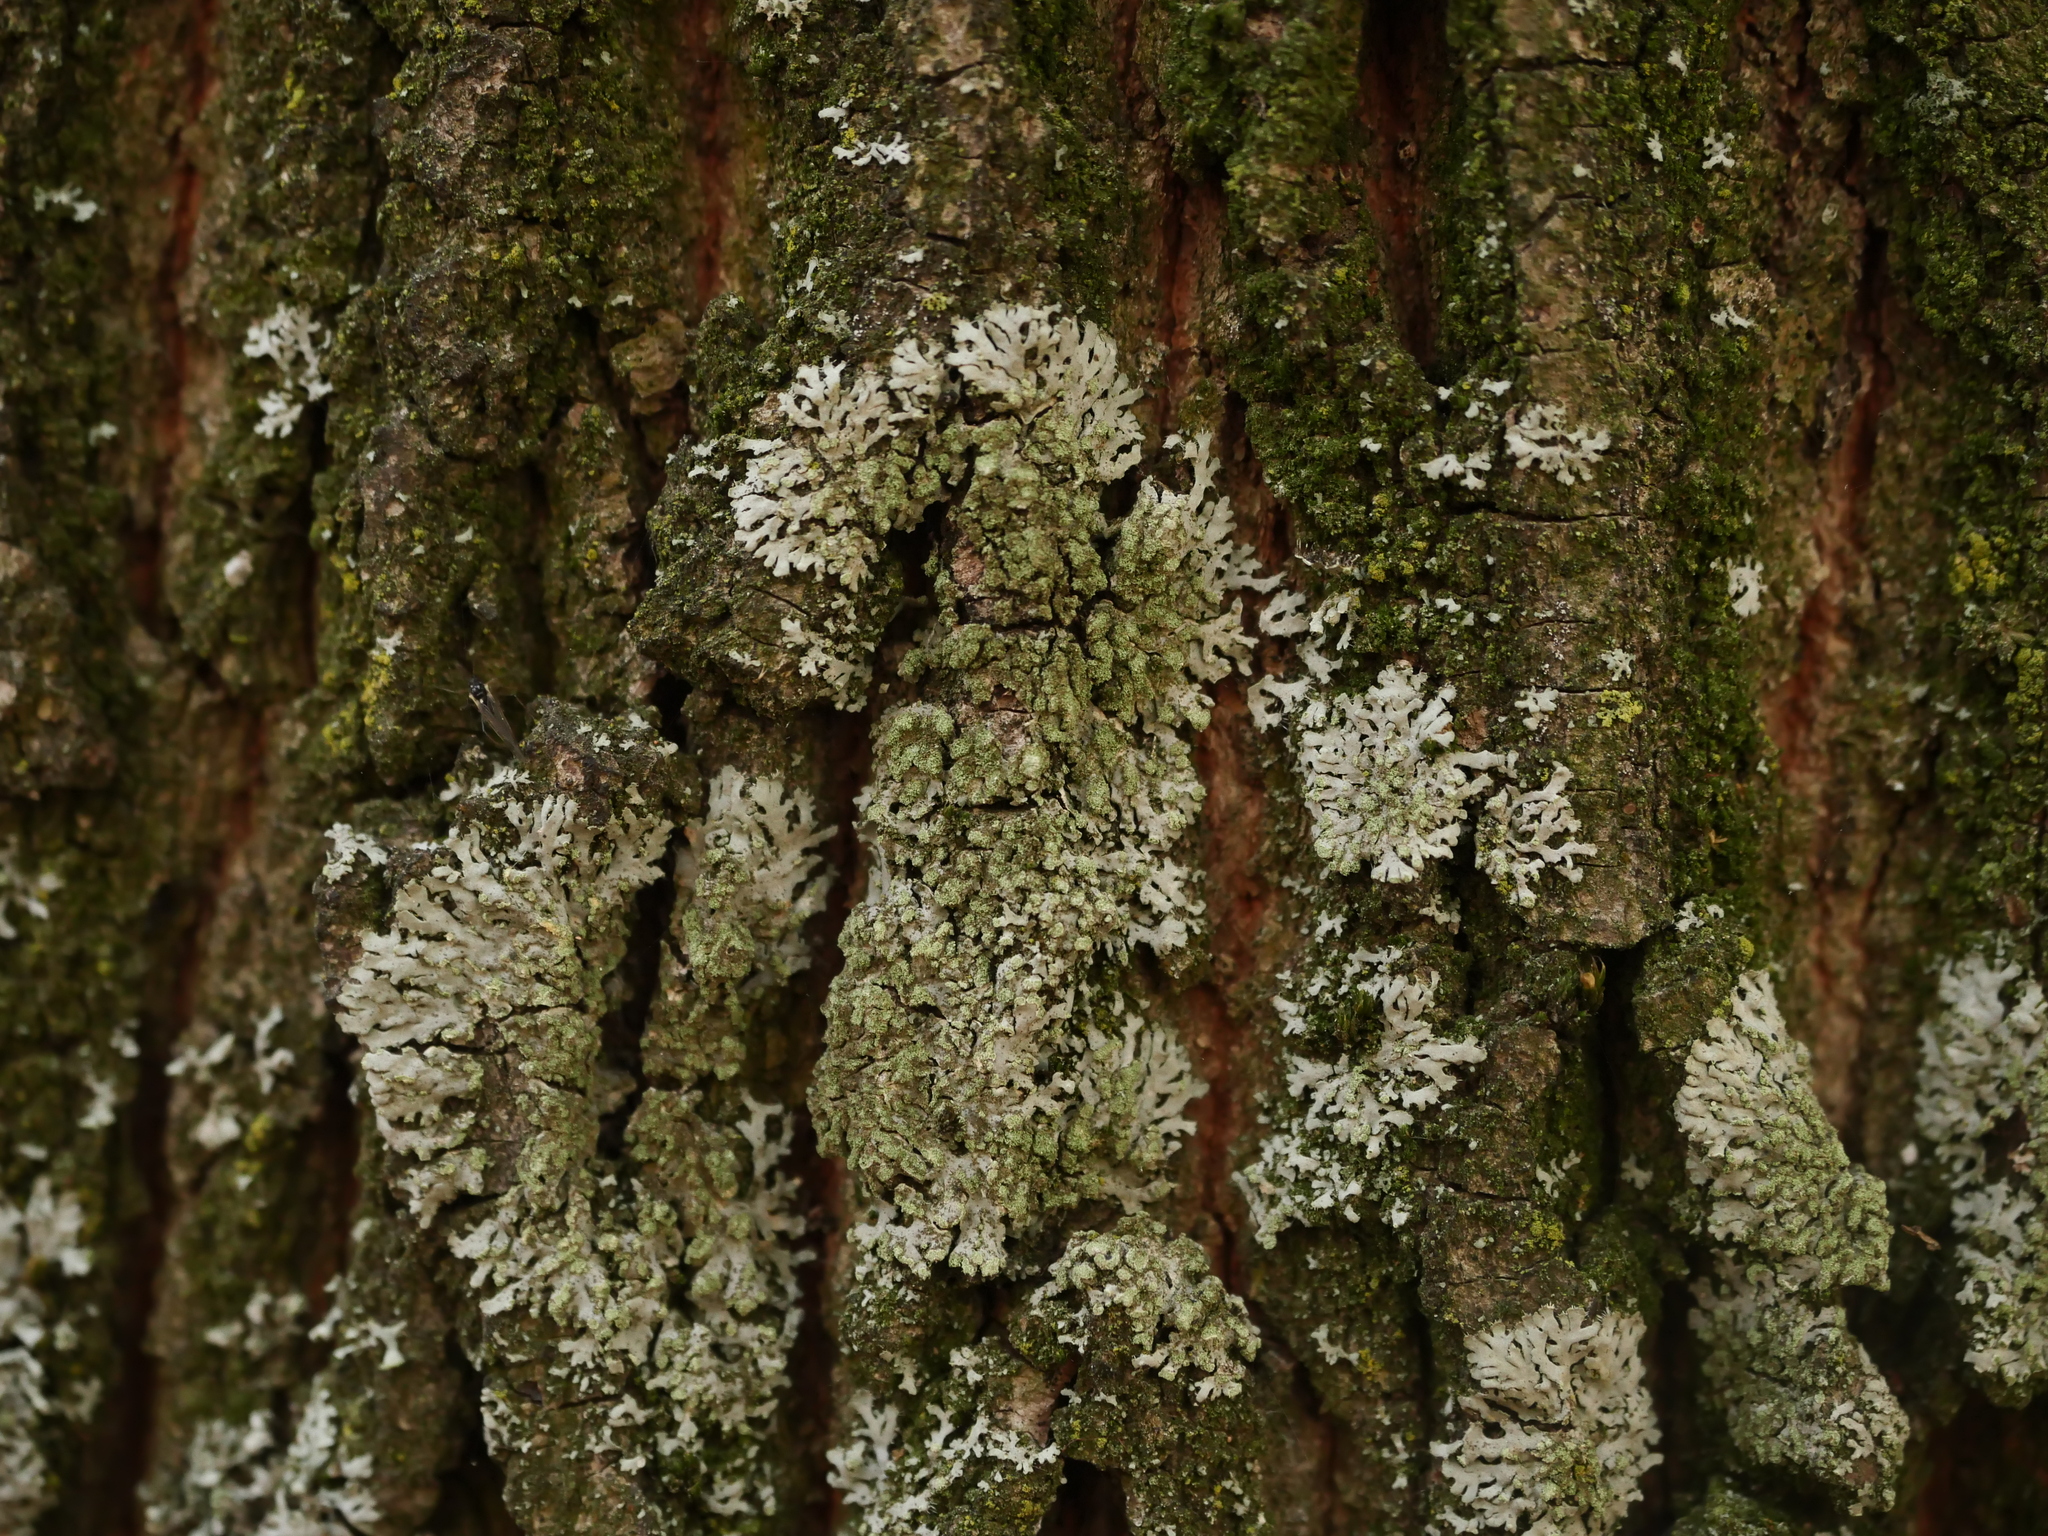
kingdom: Fungi
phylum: Ascomycota
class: Lecanoromycetes
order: Caliciales
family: Physciaceae
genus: Phaeophyscia
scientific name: Phaeophyscia orbicularis
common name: Mealy shadow lichen
